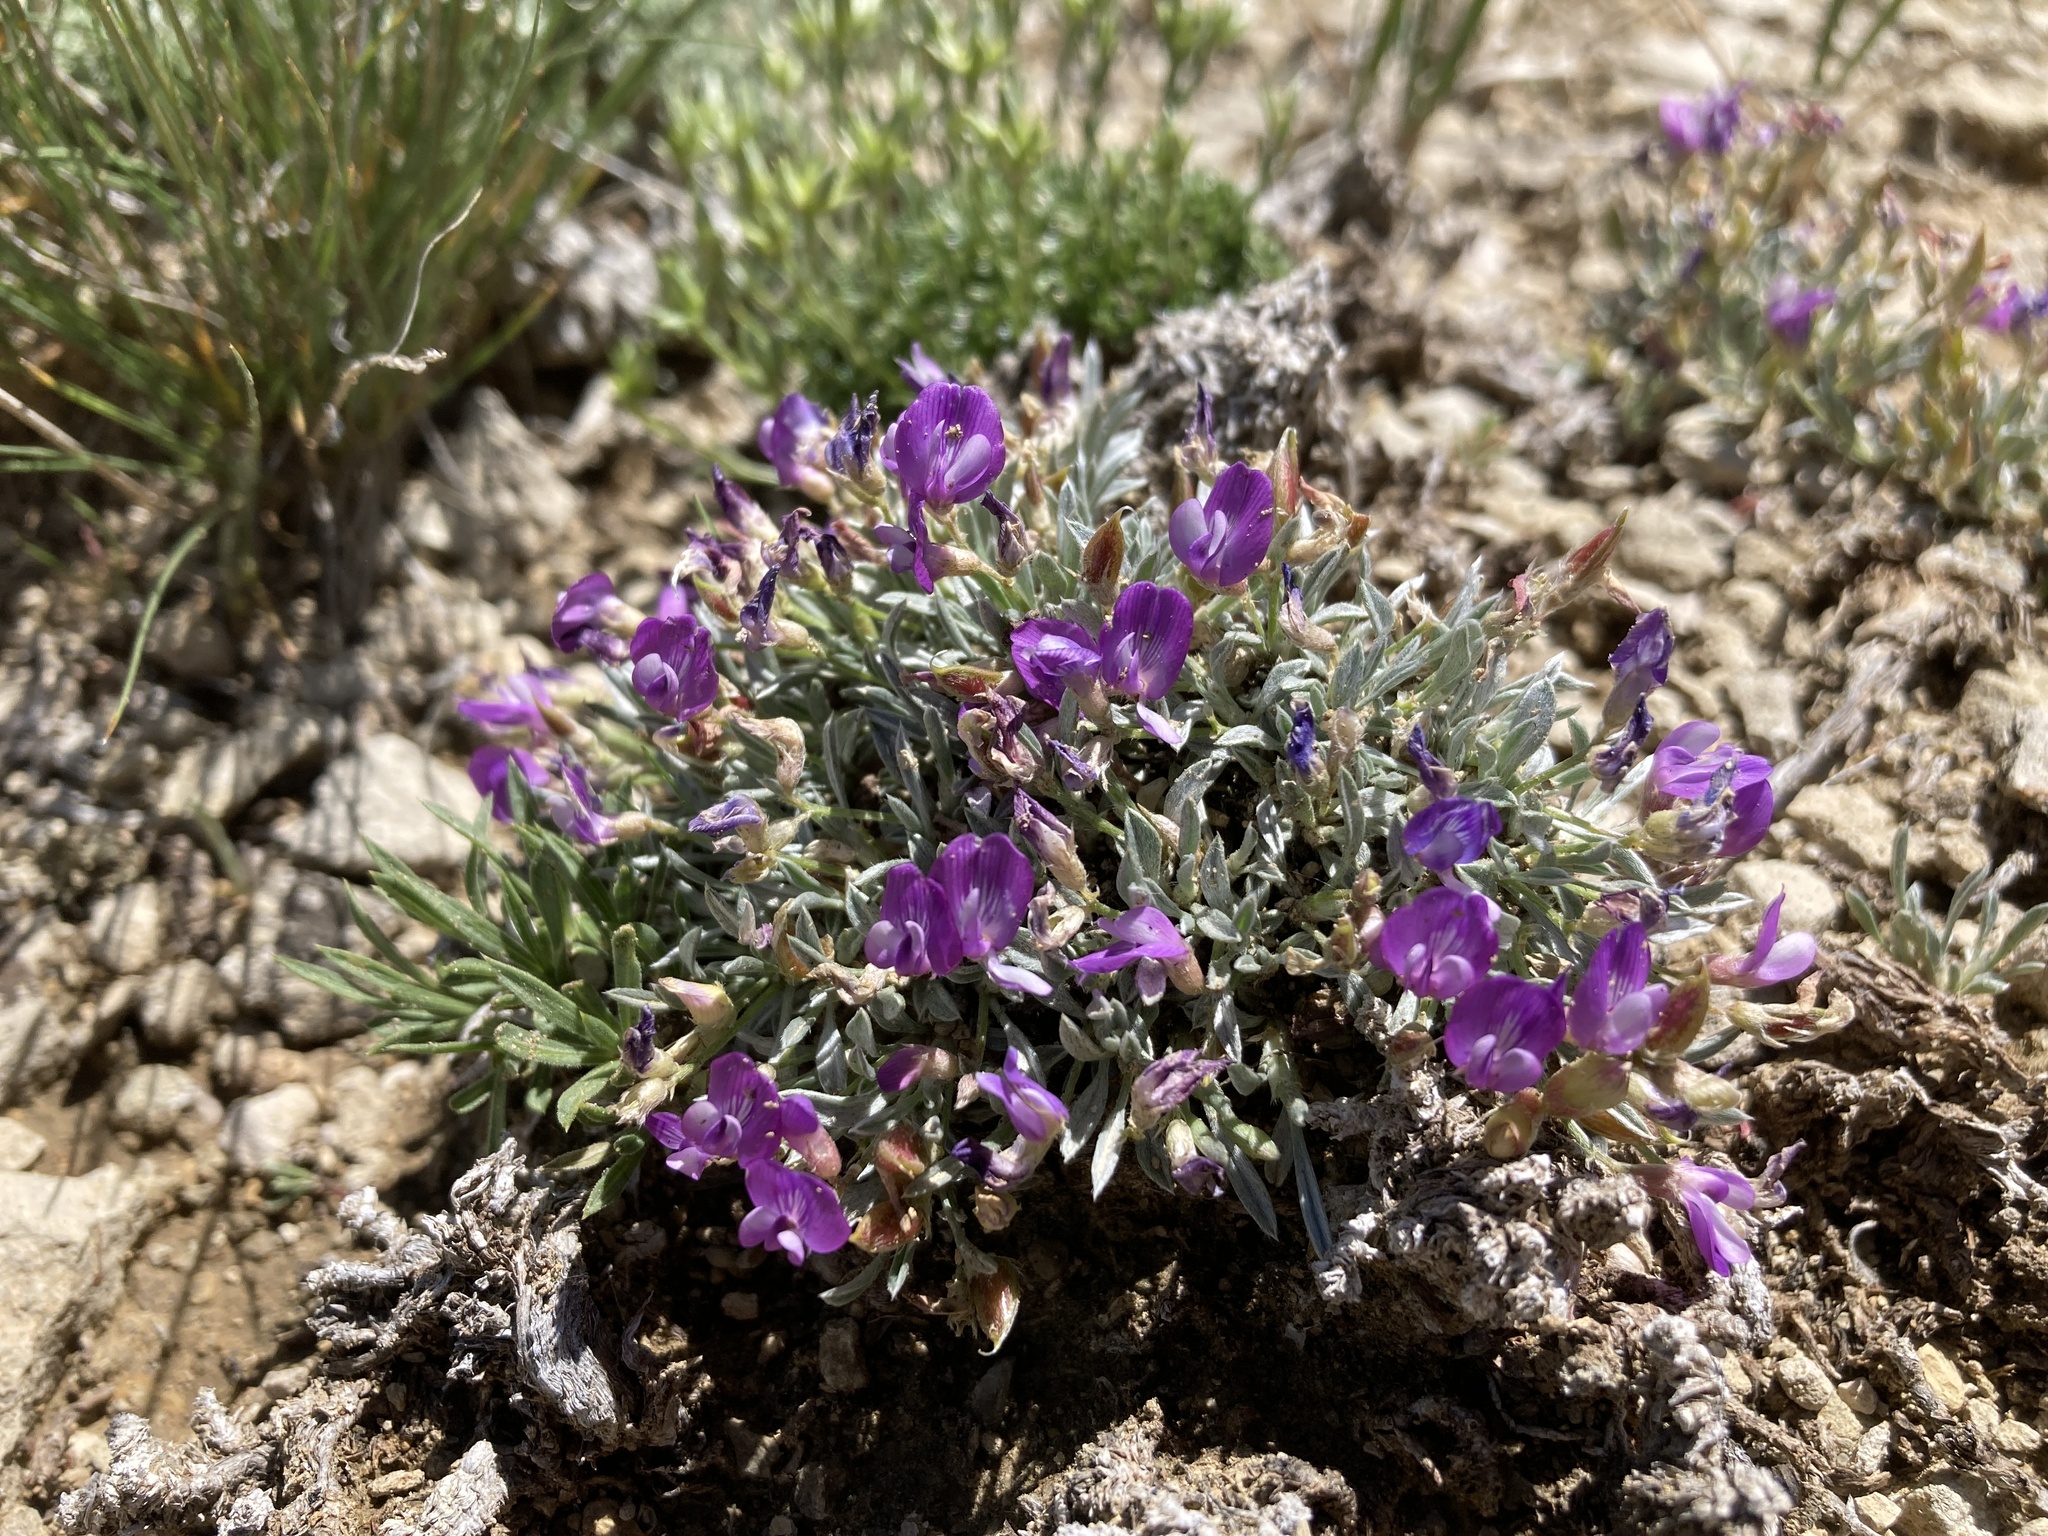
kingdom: Plantae
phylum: Tracheophyta
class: Magnoliopsida
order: Fabales
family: Fabaceae
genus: Astragalus
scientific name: Astragalus spatulatus
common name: Draba milk-vetch
